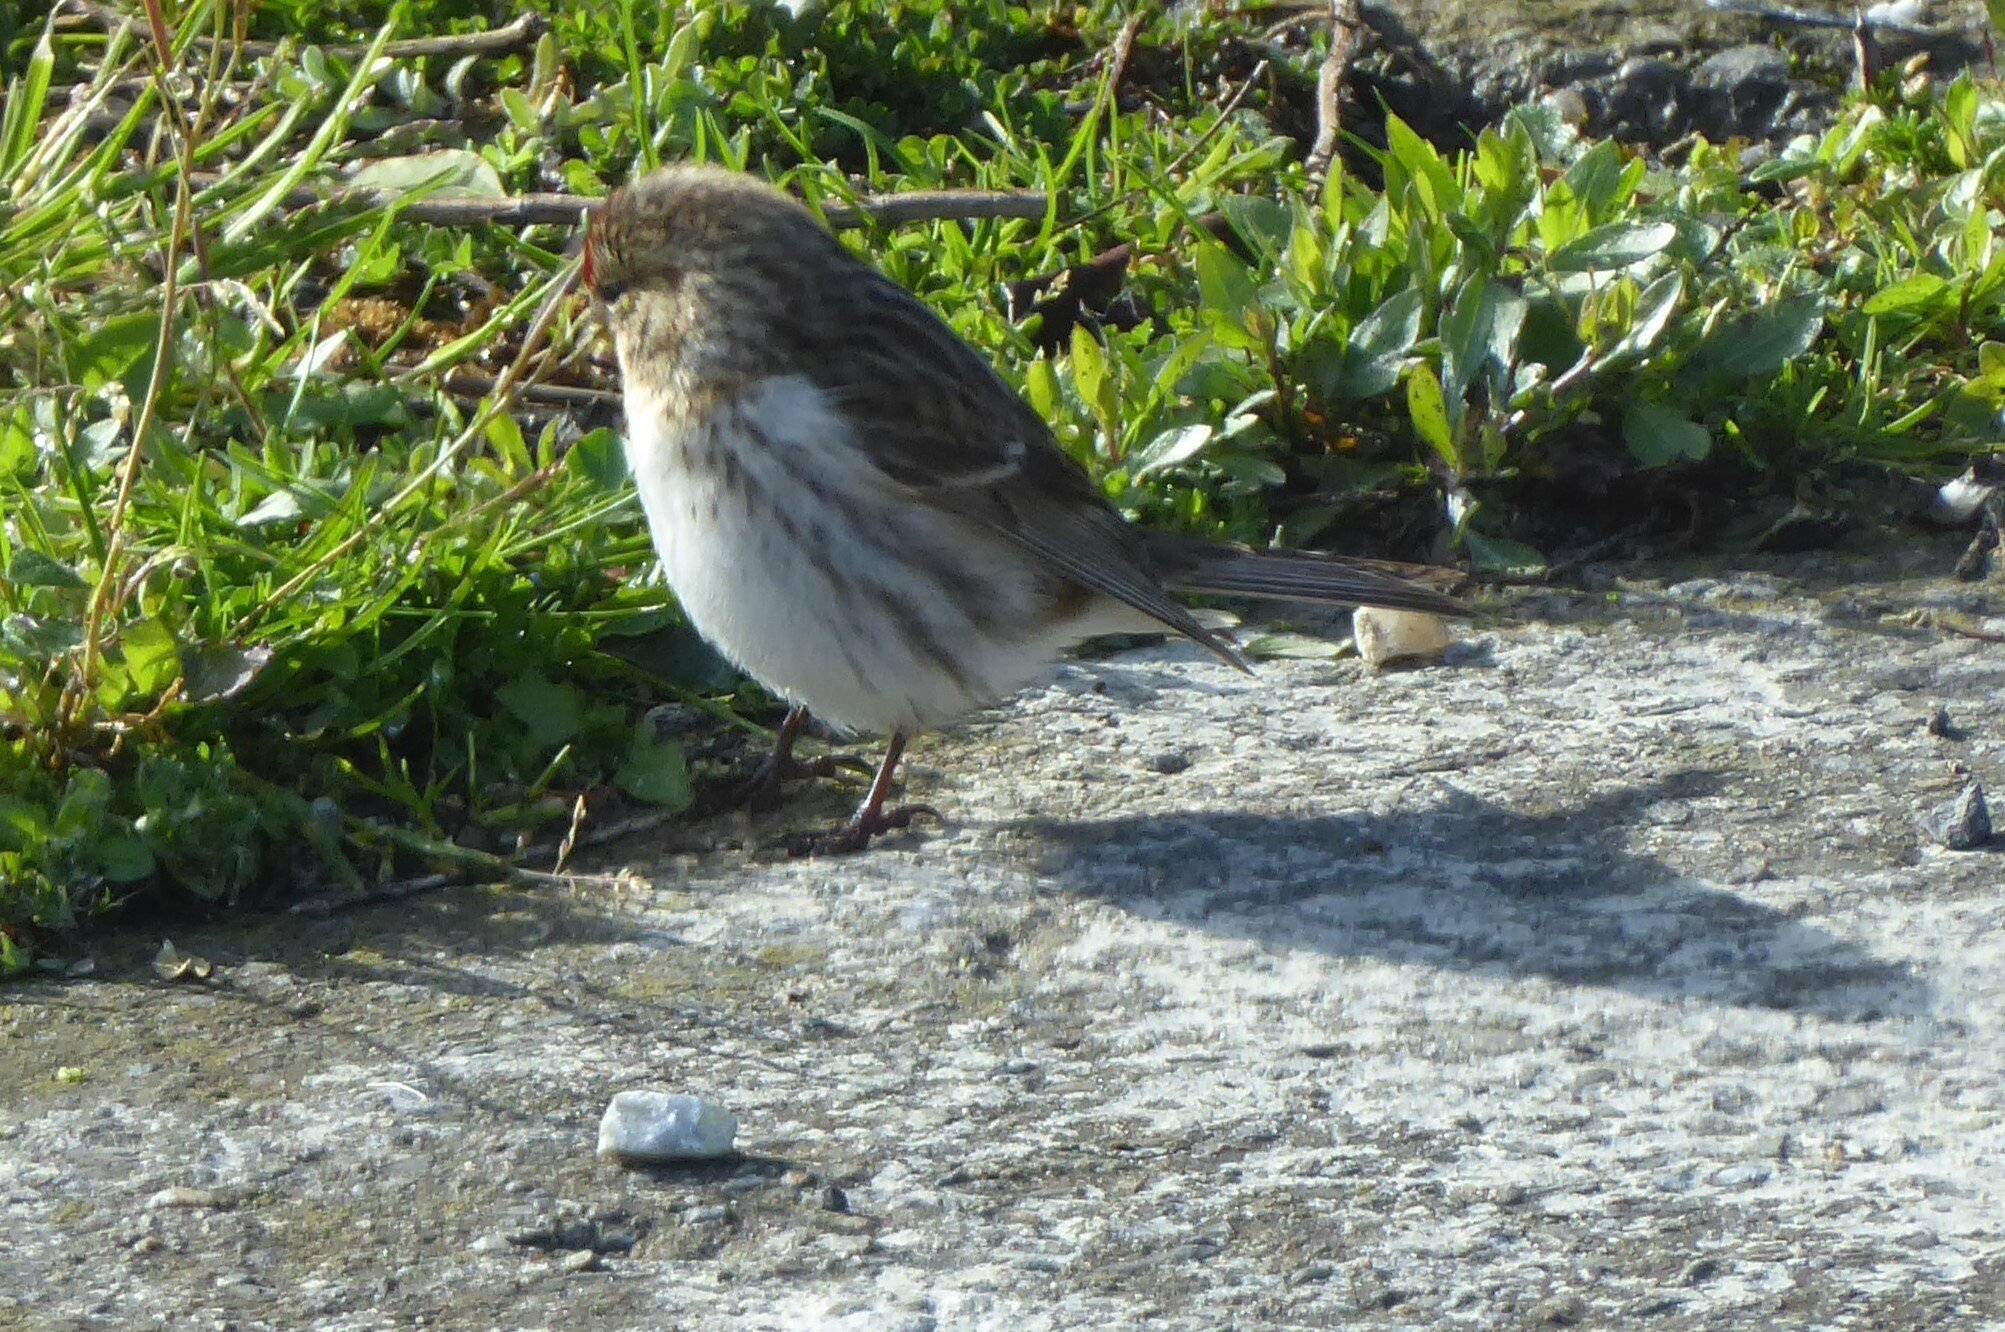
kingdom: Animalia
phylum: Chordata
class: Aves
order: Passeriformes
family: Fringillidae
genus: Acanthis
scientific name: Acanthis flammea
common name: Common redpoll
